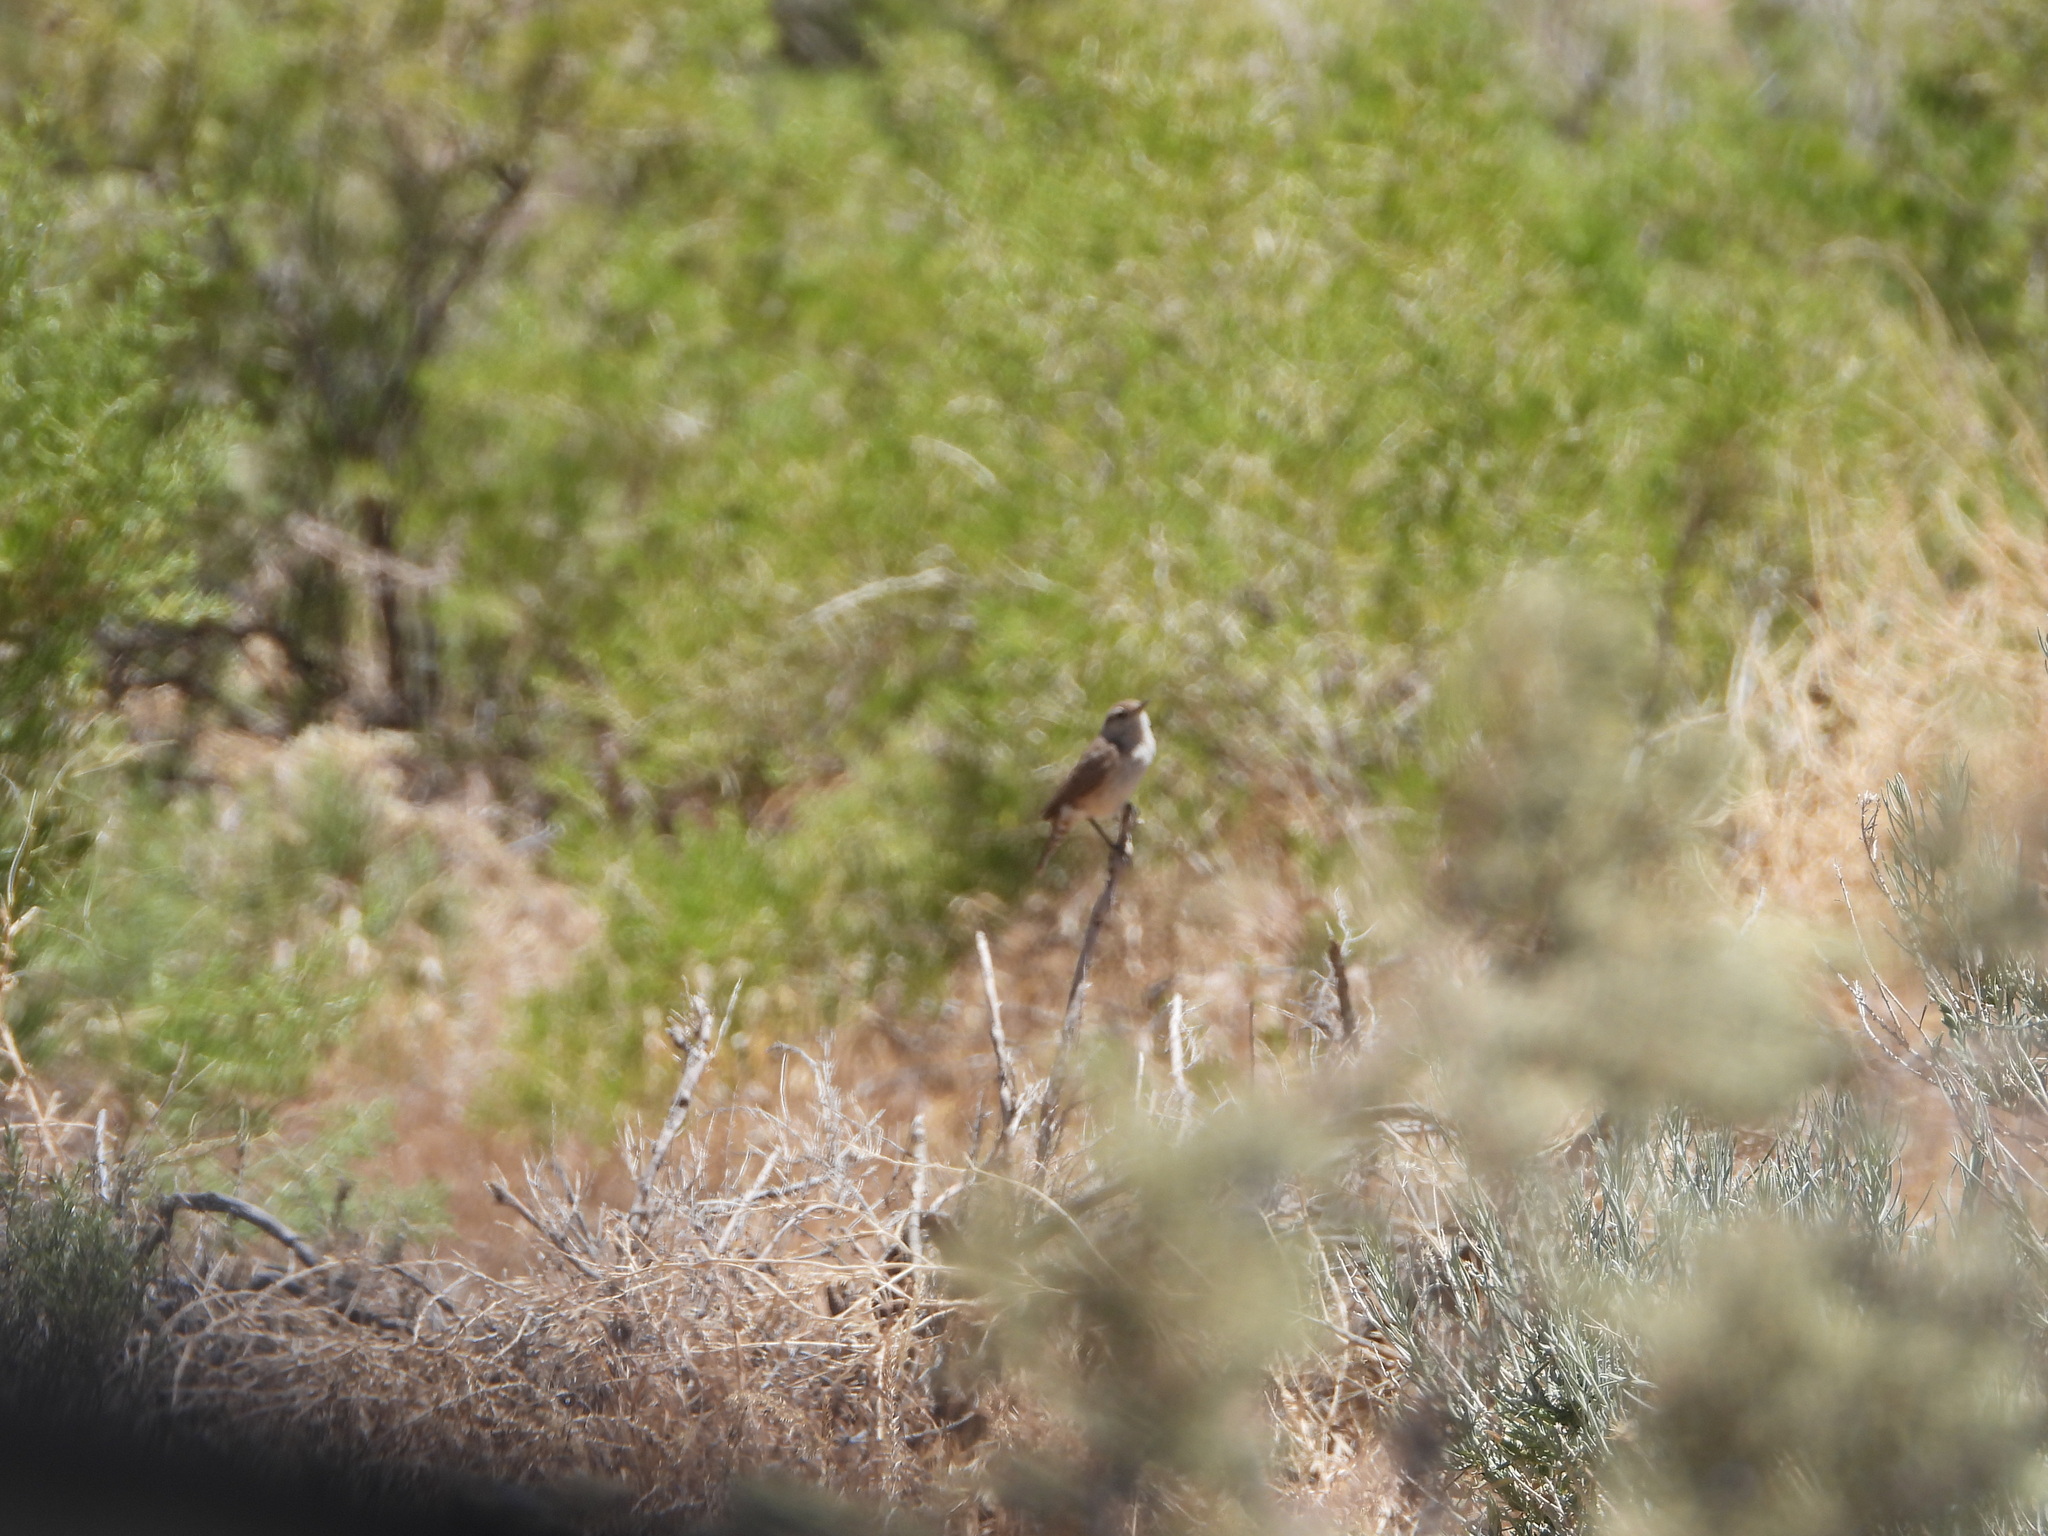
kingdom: Animalia
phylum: Chordata
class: Aves
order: Passeriformes
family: Troglodytidae
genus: Salpinctes
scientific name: Salpinctes obsoletus
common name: Rock wren
